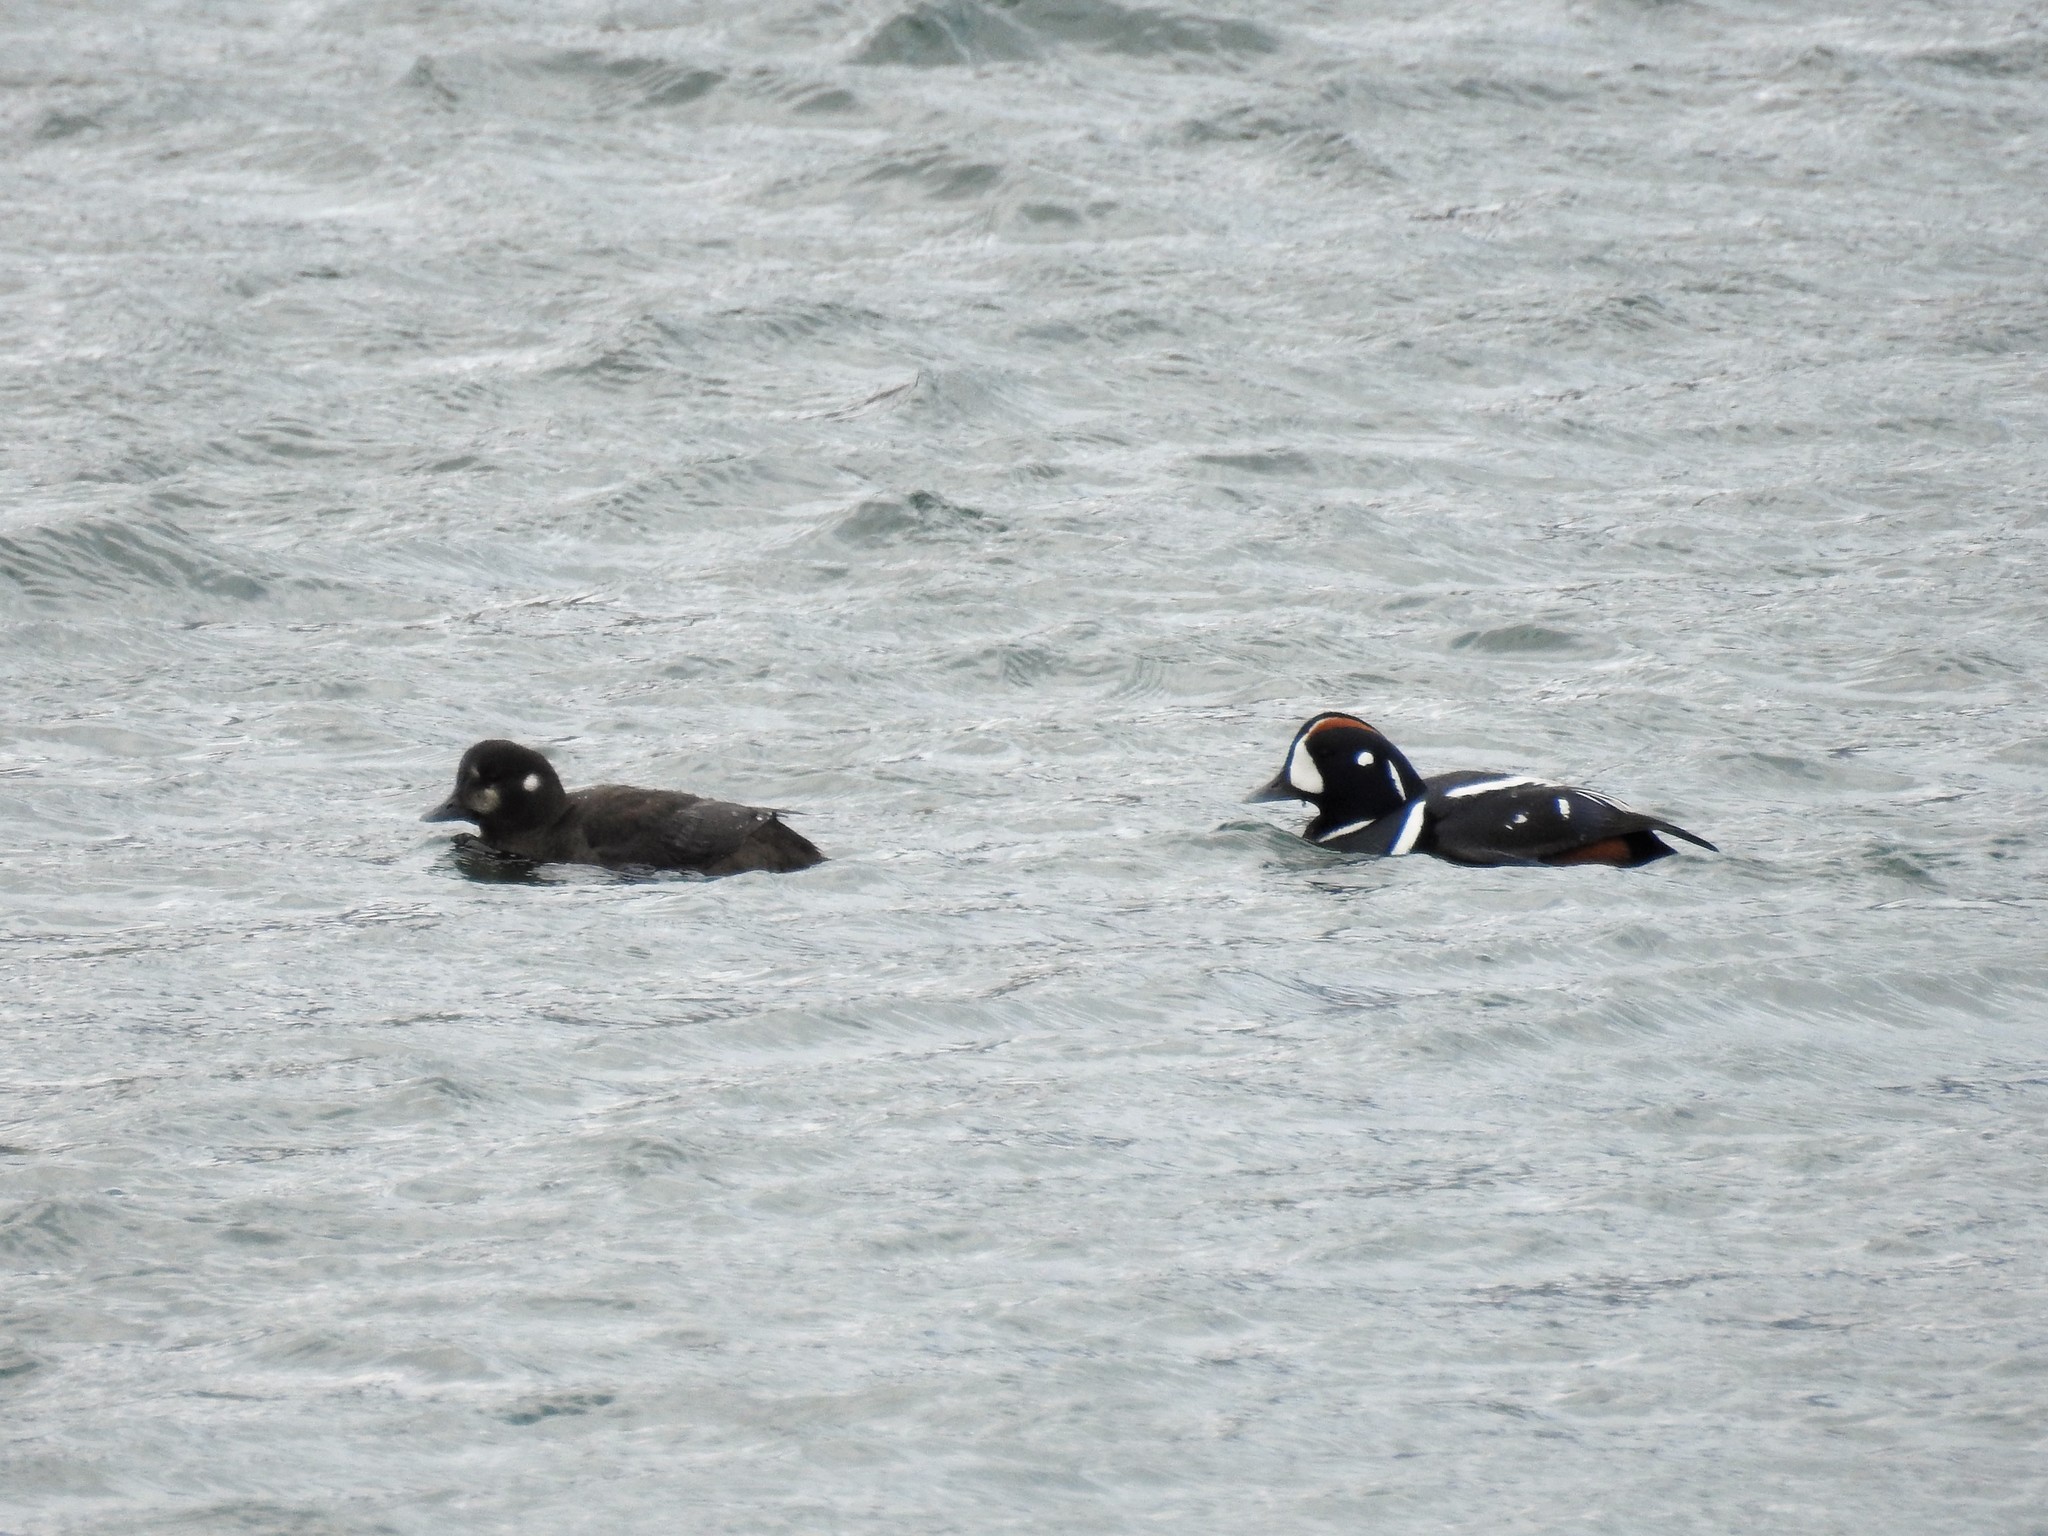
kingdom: Animalia
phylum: Chordata
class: Aves
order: Anseriformes
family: Anatidae
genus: Histrionicus
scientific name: Histrionicus histrionicus
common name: Harlequin duck
